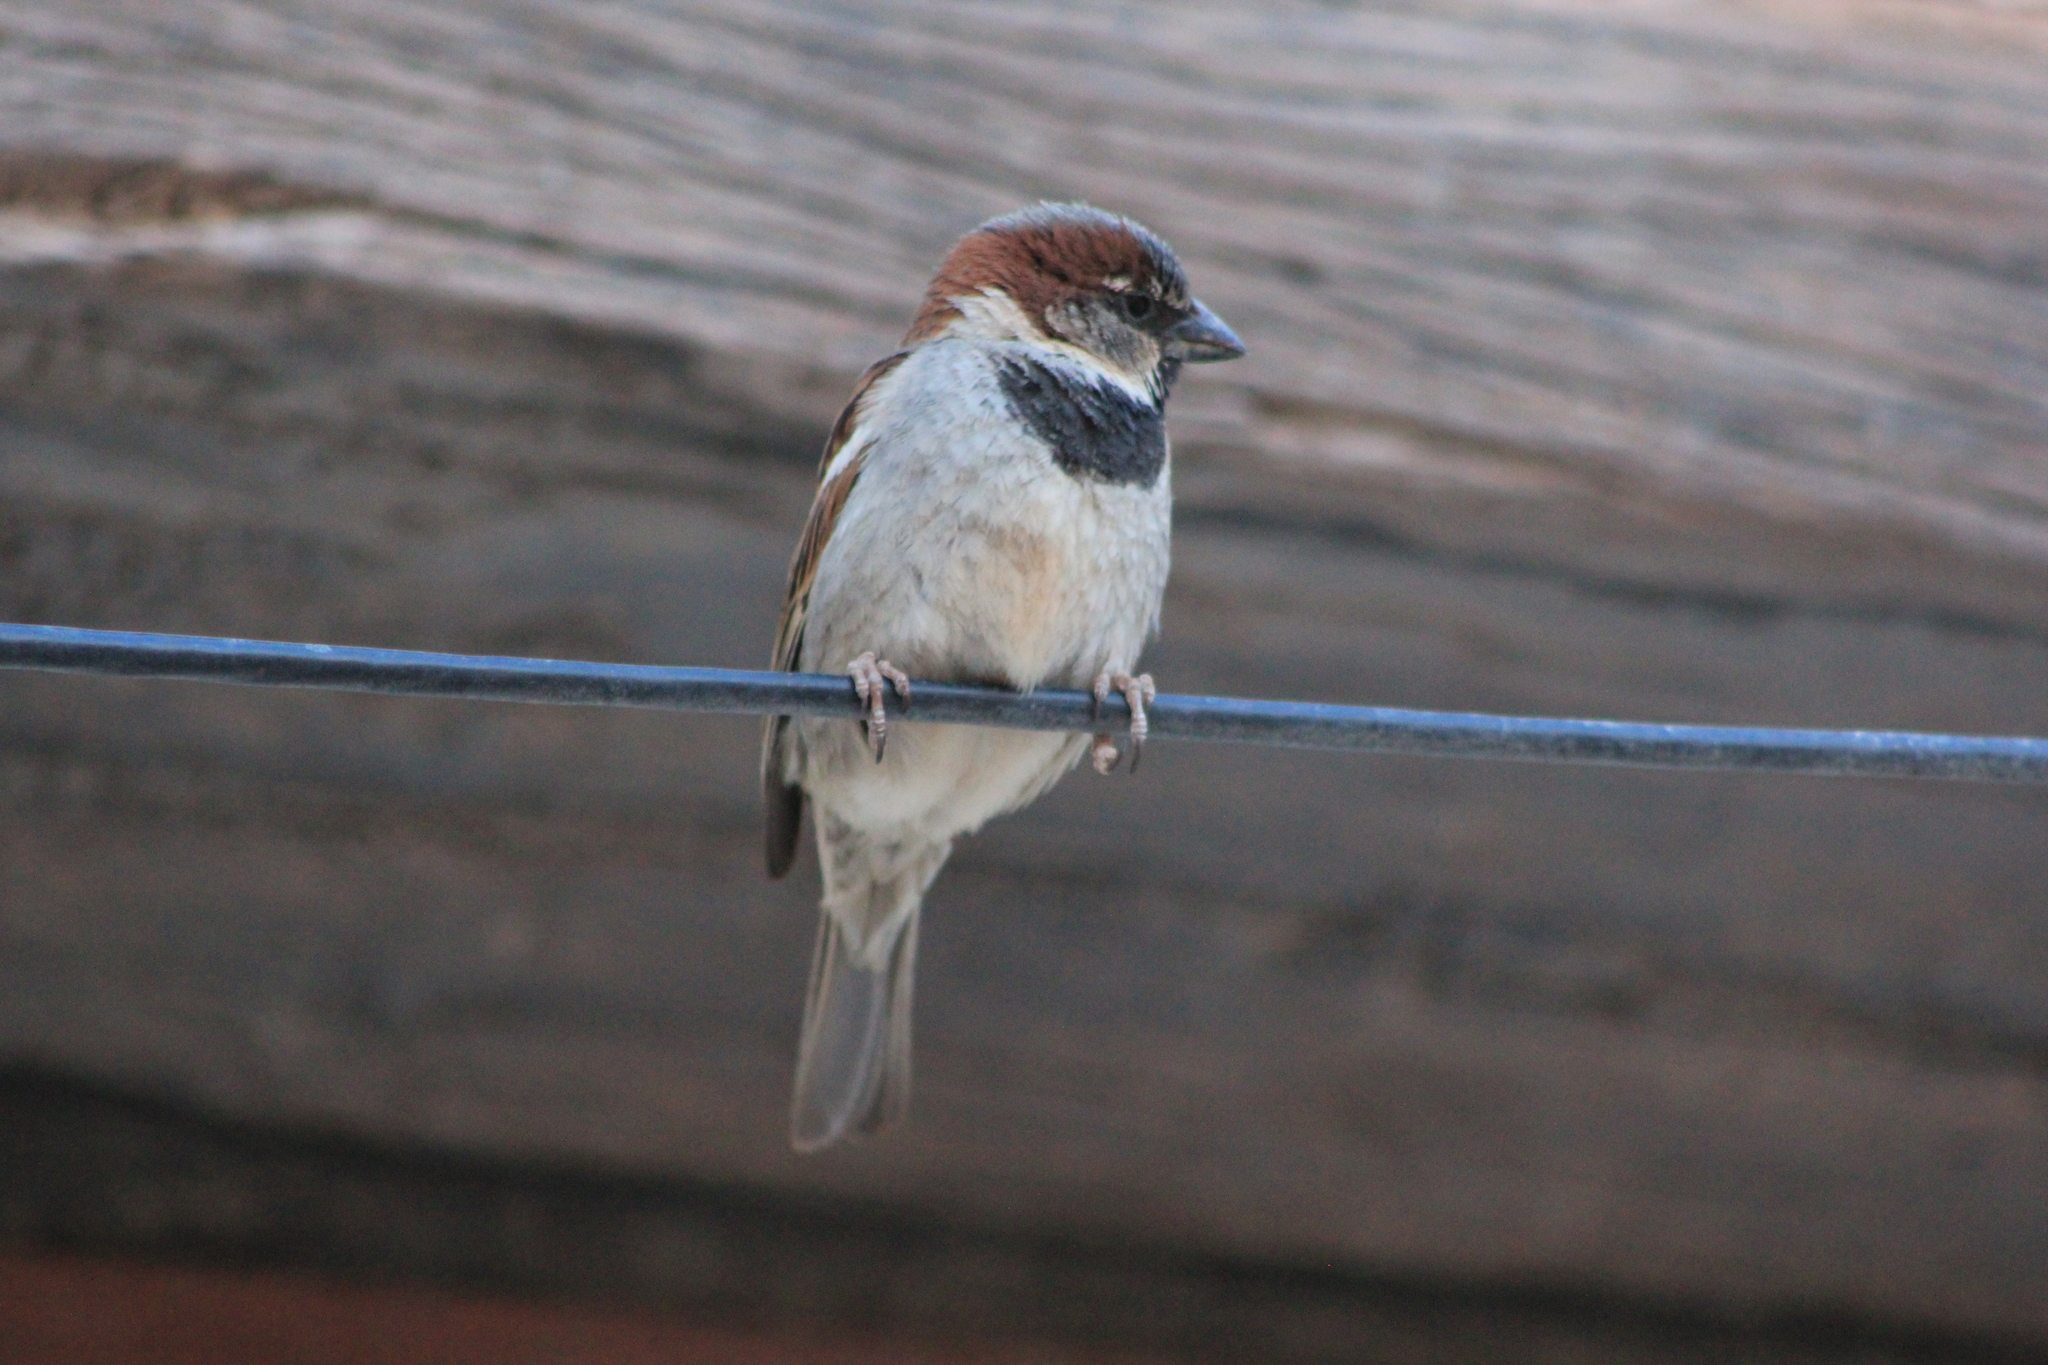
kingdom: Animalia
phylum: Chordata
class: Aves
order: Passeriformes
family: Passeridae
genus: Passer
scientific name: Passer domesticus
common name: House sparrow
